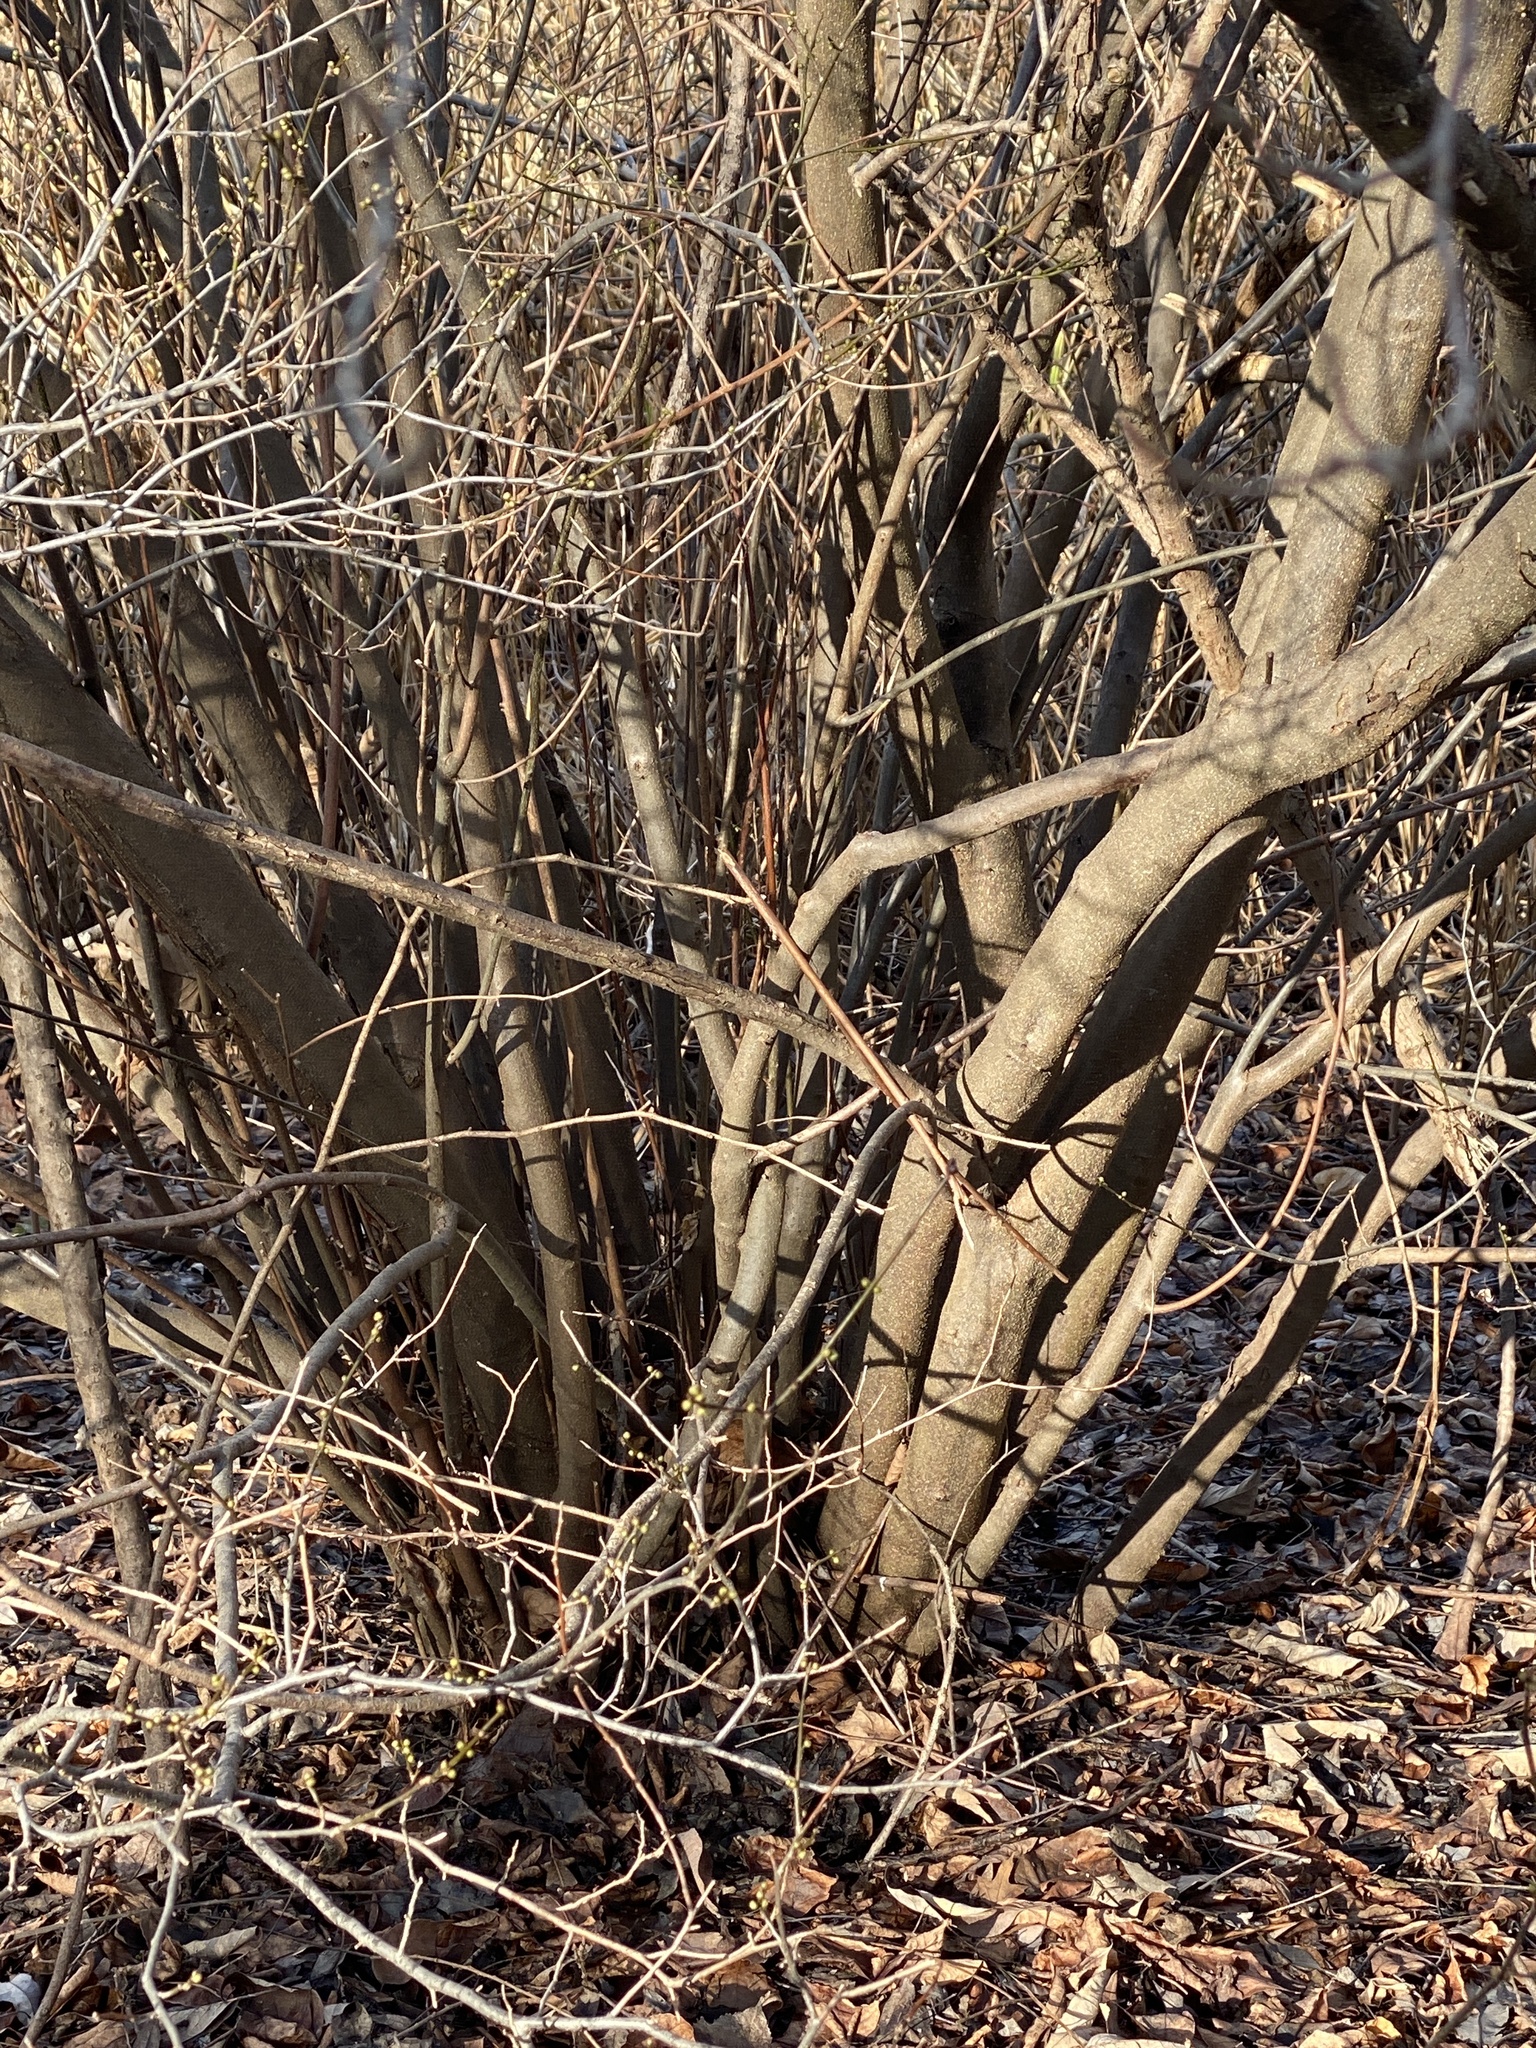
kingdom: Plantae
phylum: Tracheophyta
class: Magnoliopsida
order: Laurales
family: Lauraceae
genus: Lindera
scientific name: Lindera benzoin
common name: Spicebush
